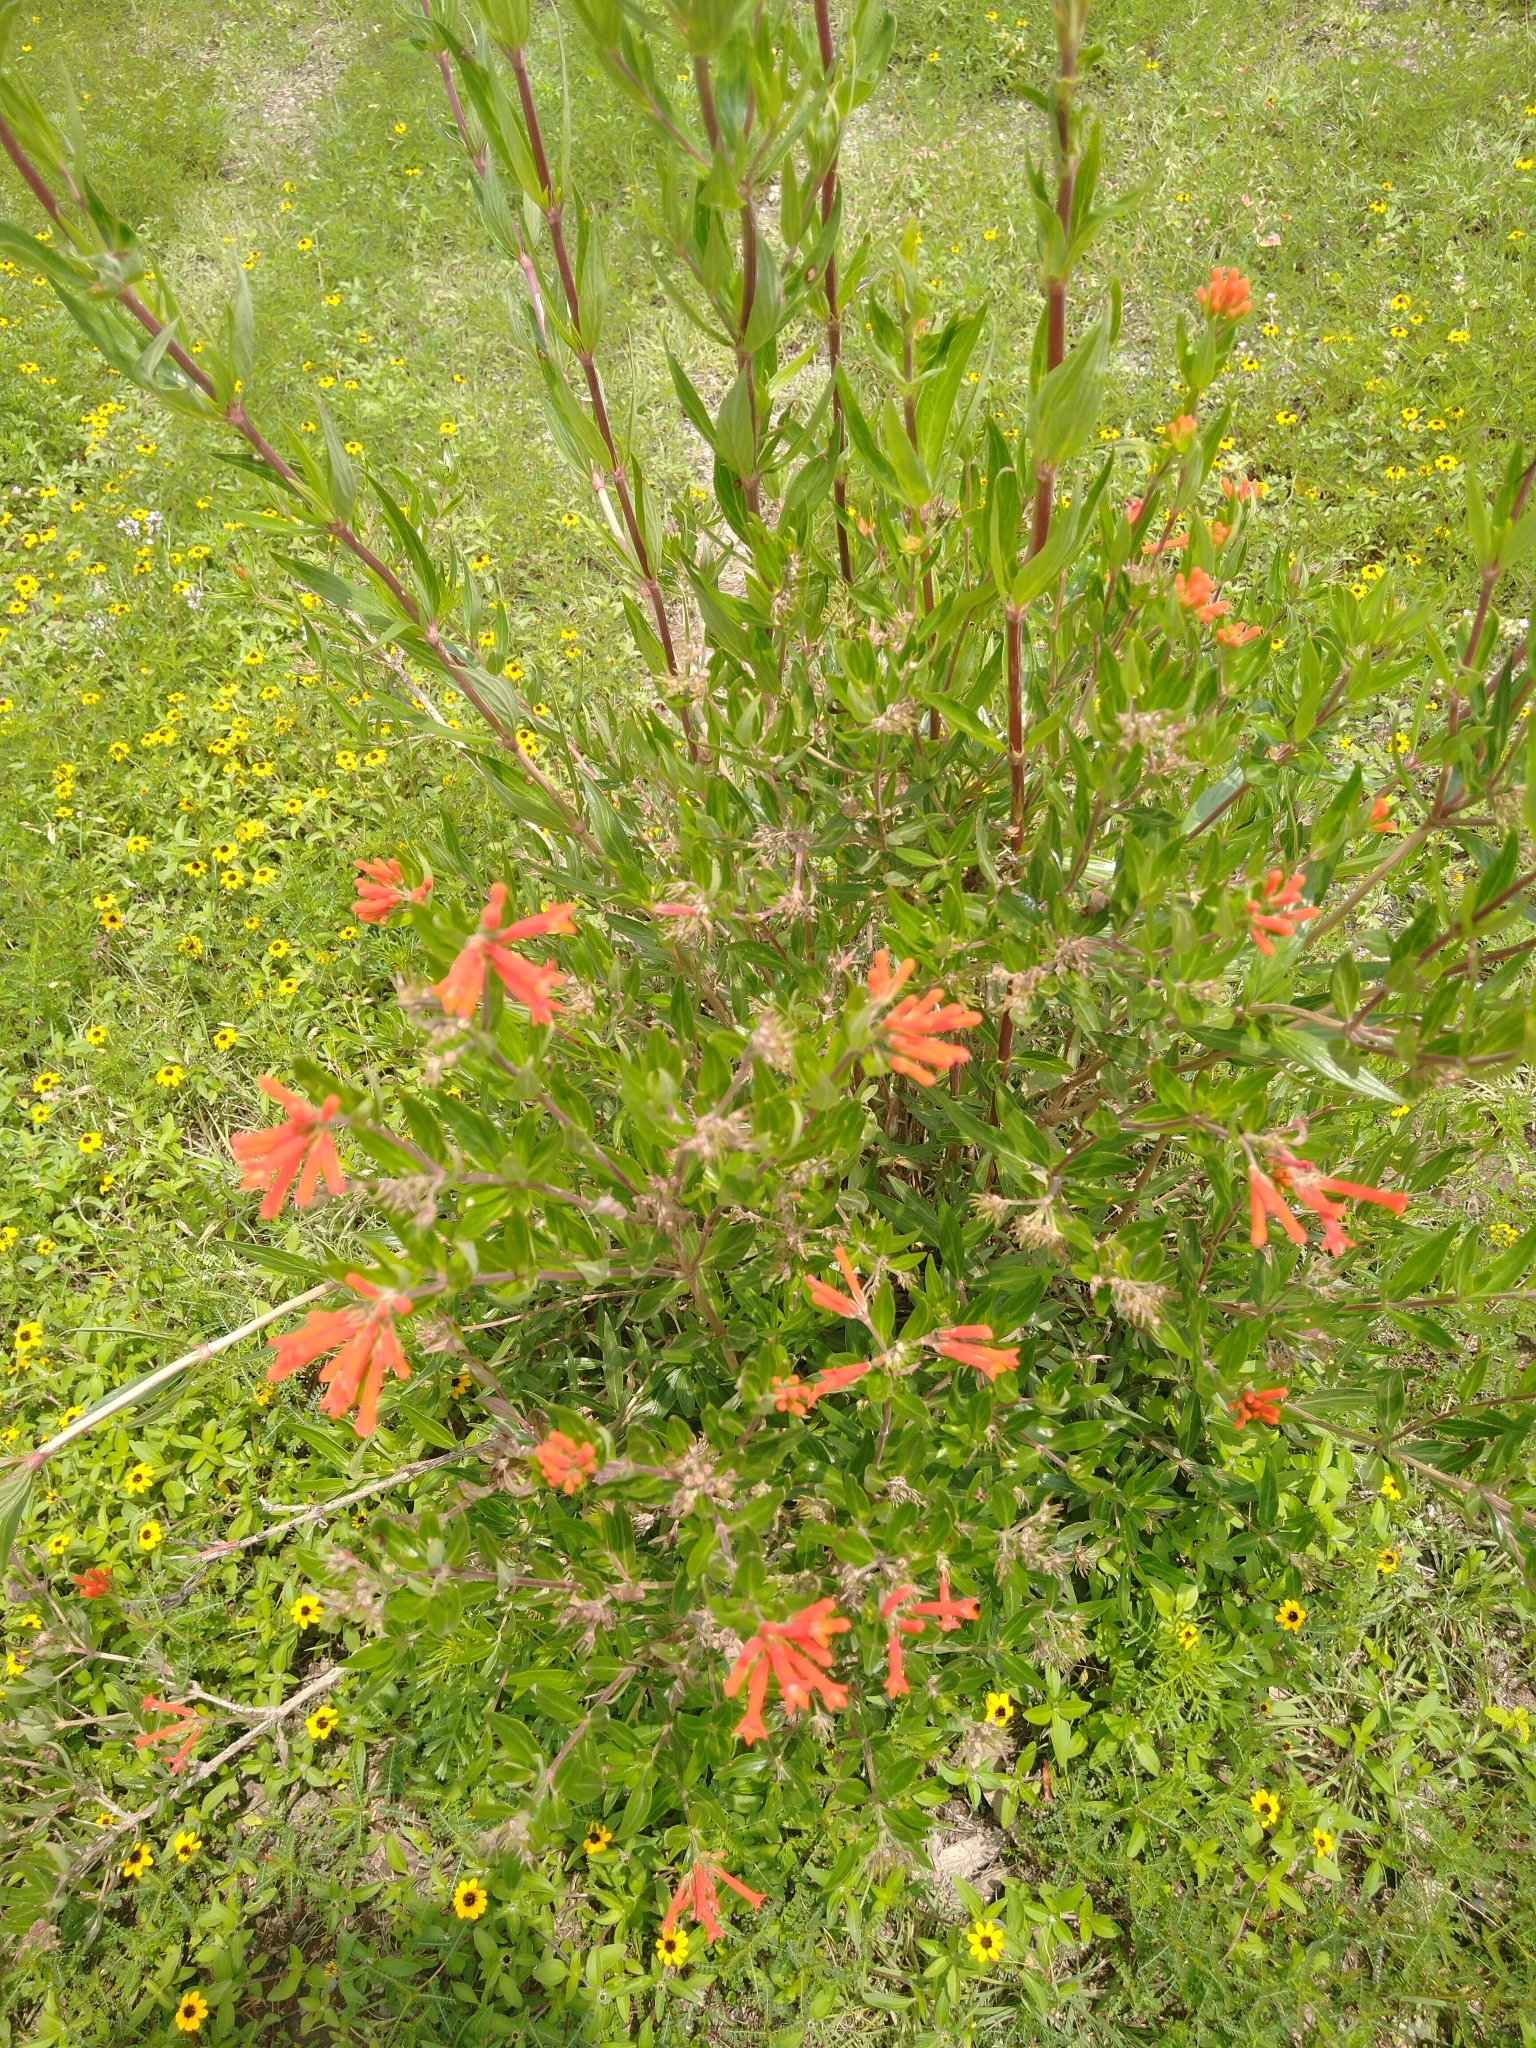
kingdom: Plantae
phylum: Tracheophyta
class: Magnoliopsida
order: Gentianales
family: Rubiaceae
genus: Bouvardia
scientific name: Bouvardia ternifolia
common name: Scarlet bouvardia
